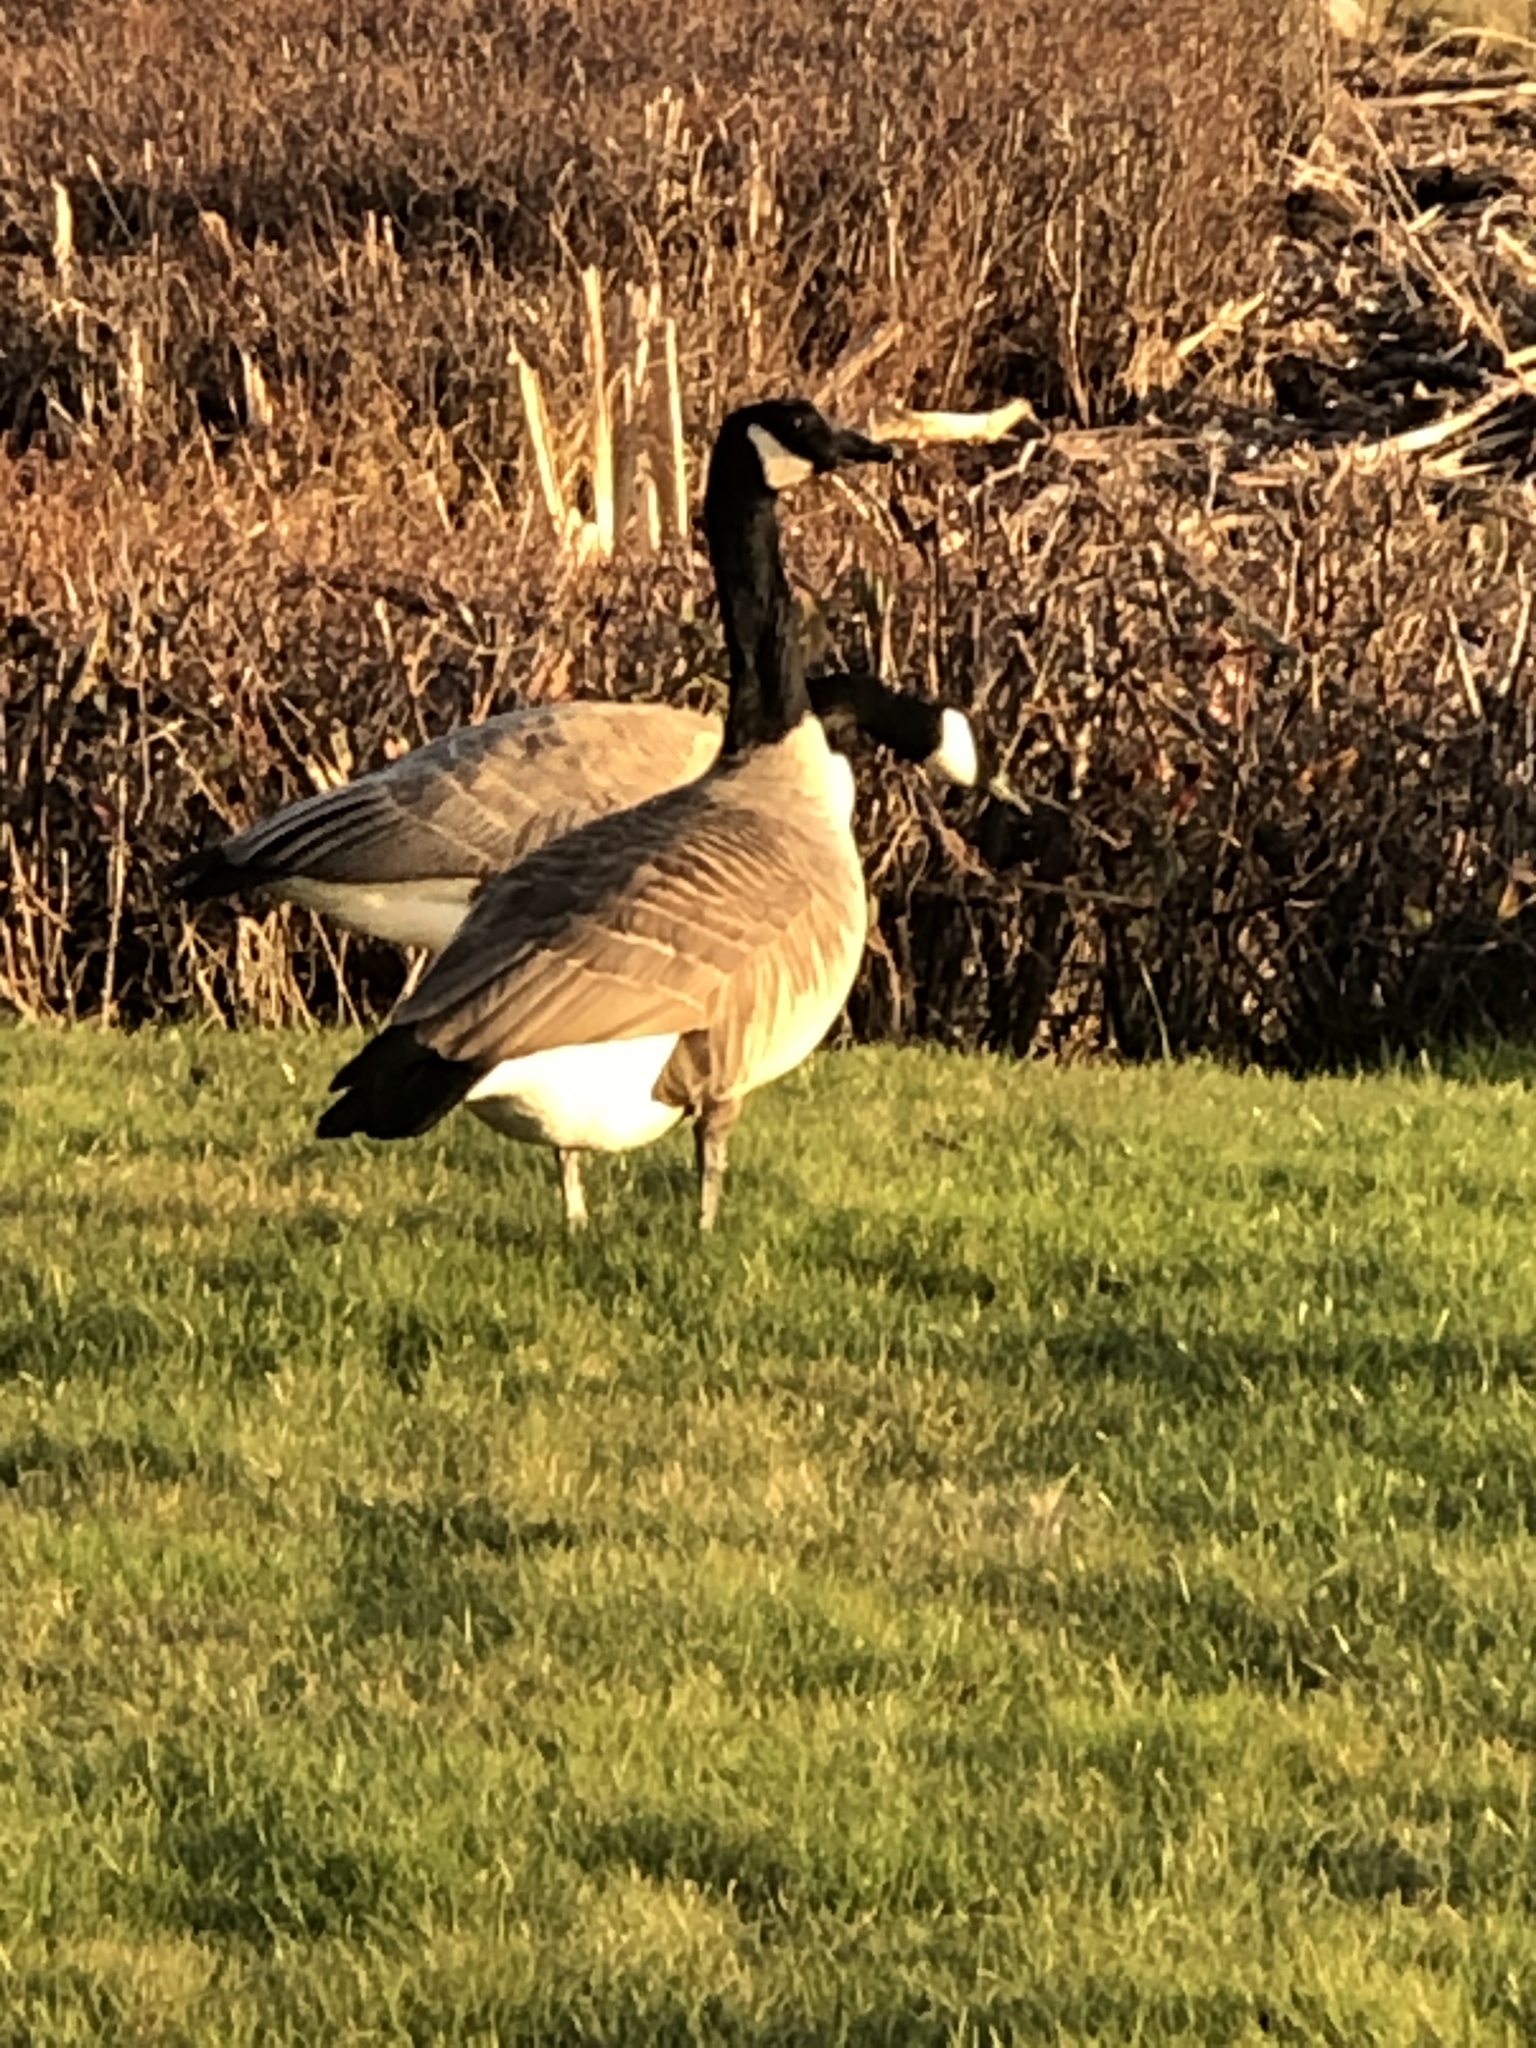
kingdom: Animalia
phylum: Chordata
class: Aves
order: Anseriformes
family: Anatidae
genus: Branta
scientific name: Branta canadensis
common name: Canada goose
